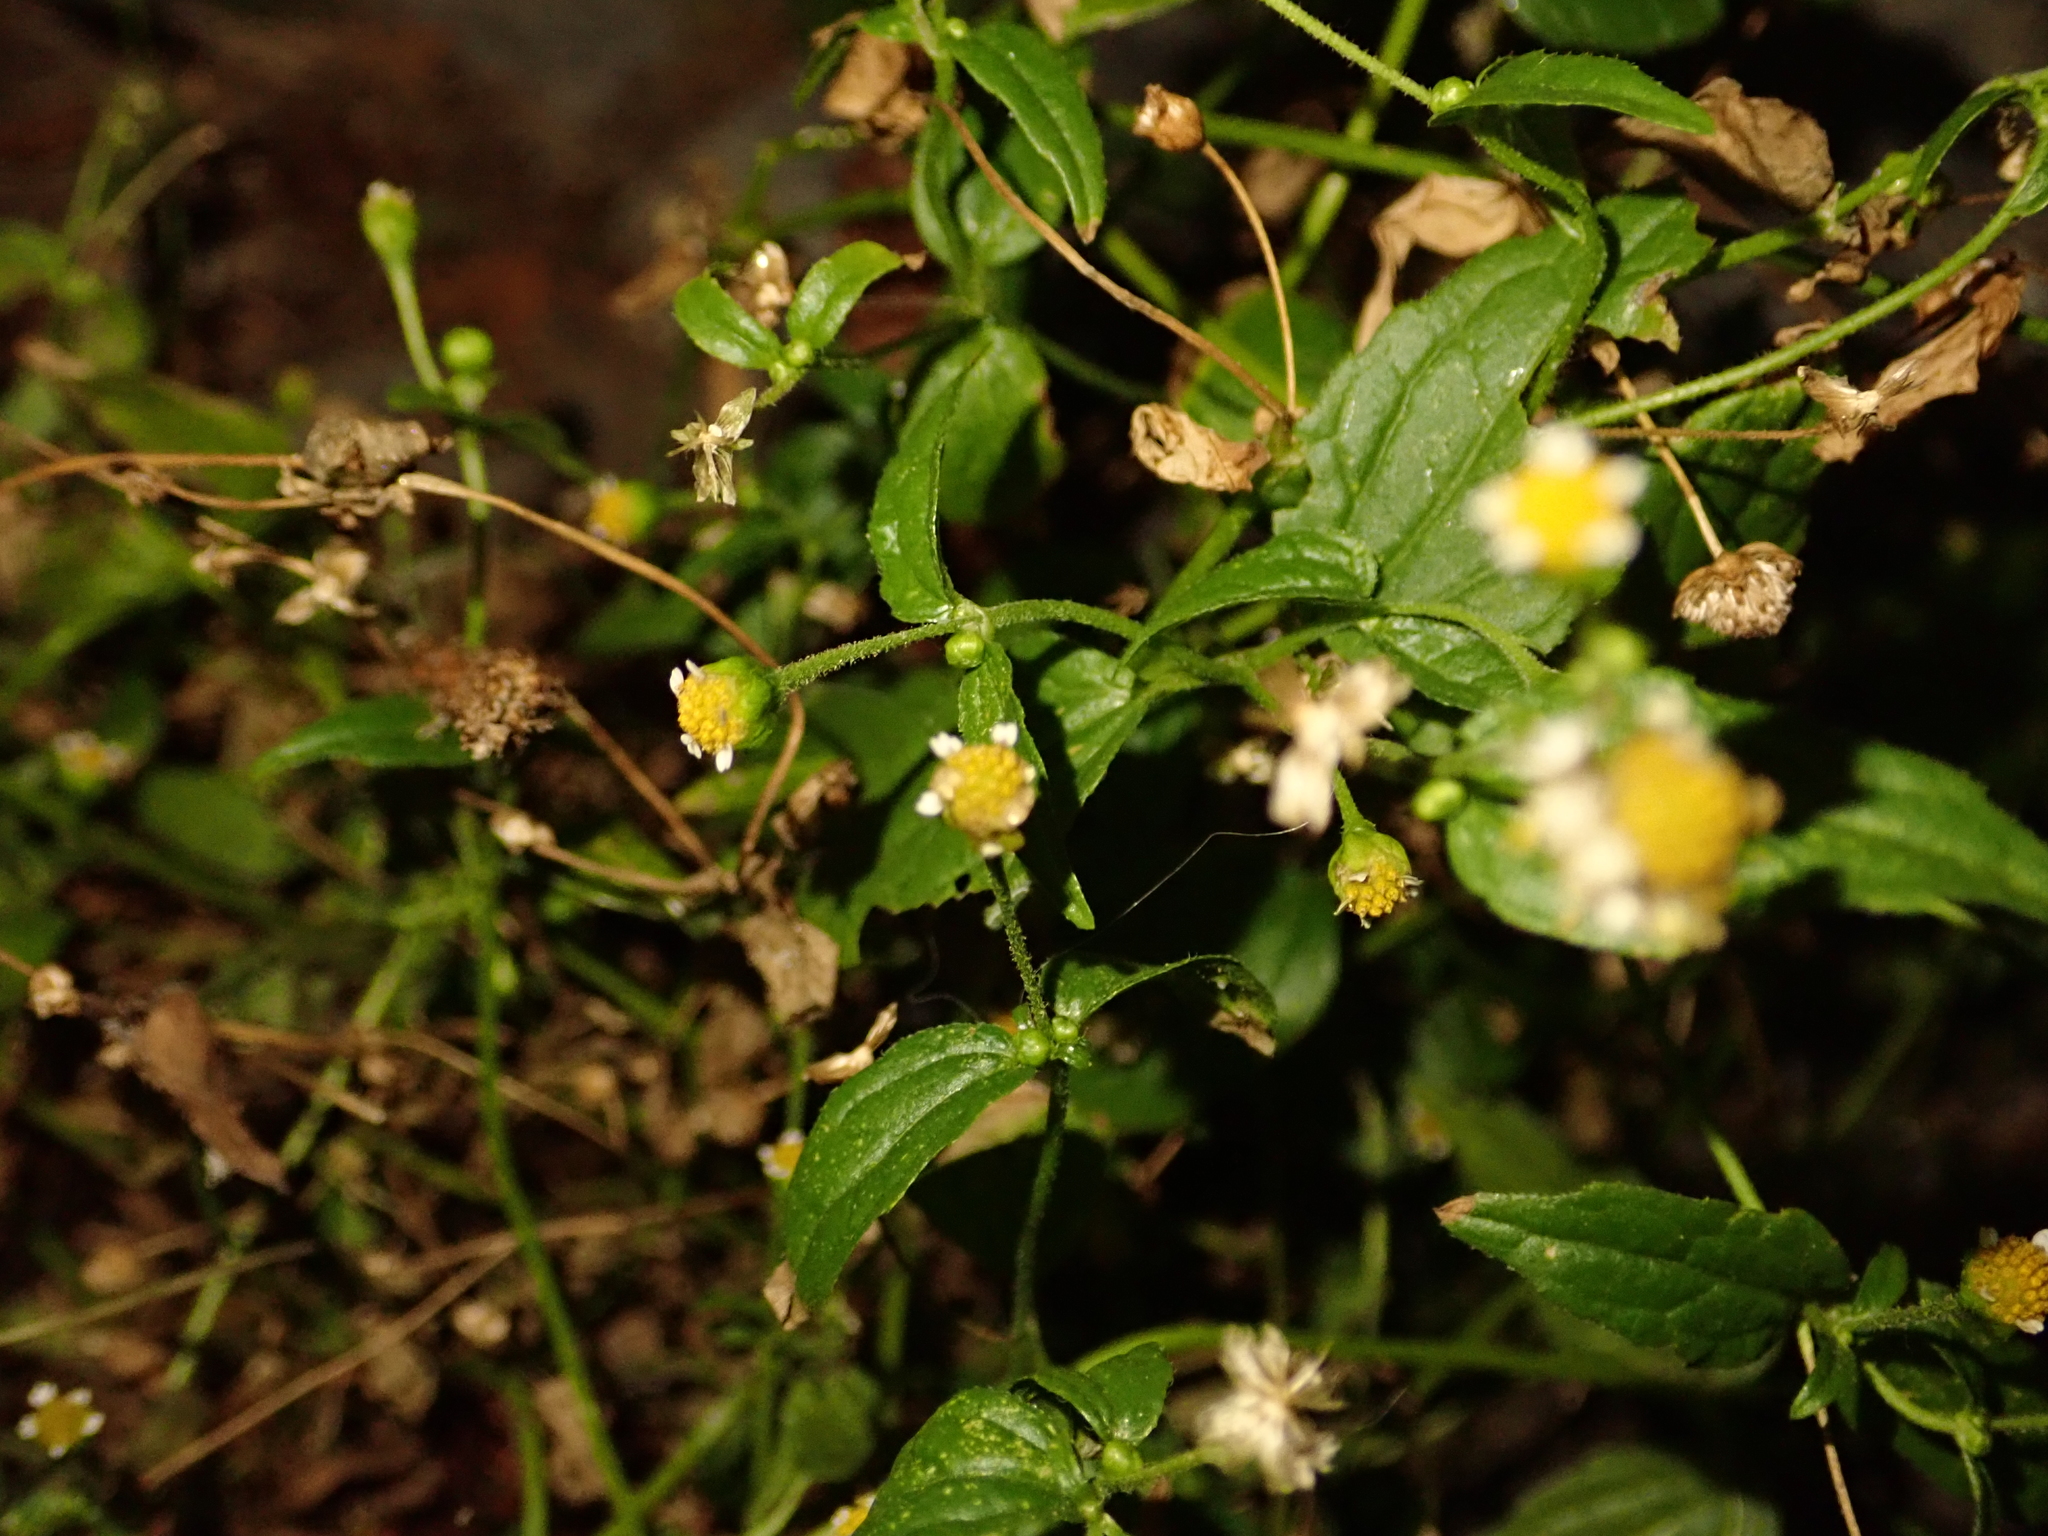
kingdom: Plantae
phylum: Tracheophyta
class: Magnoliopsida
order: Asterales
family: Asteraceae
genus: Galinsoga
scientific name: Galinsoga parviflora
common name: Gallant soldier
